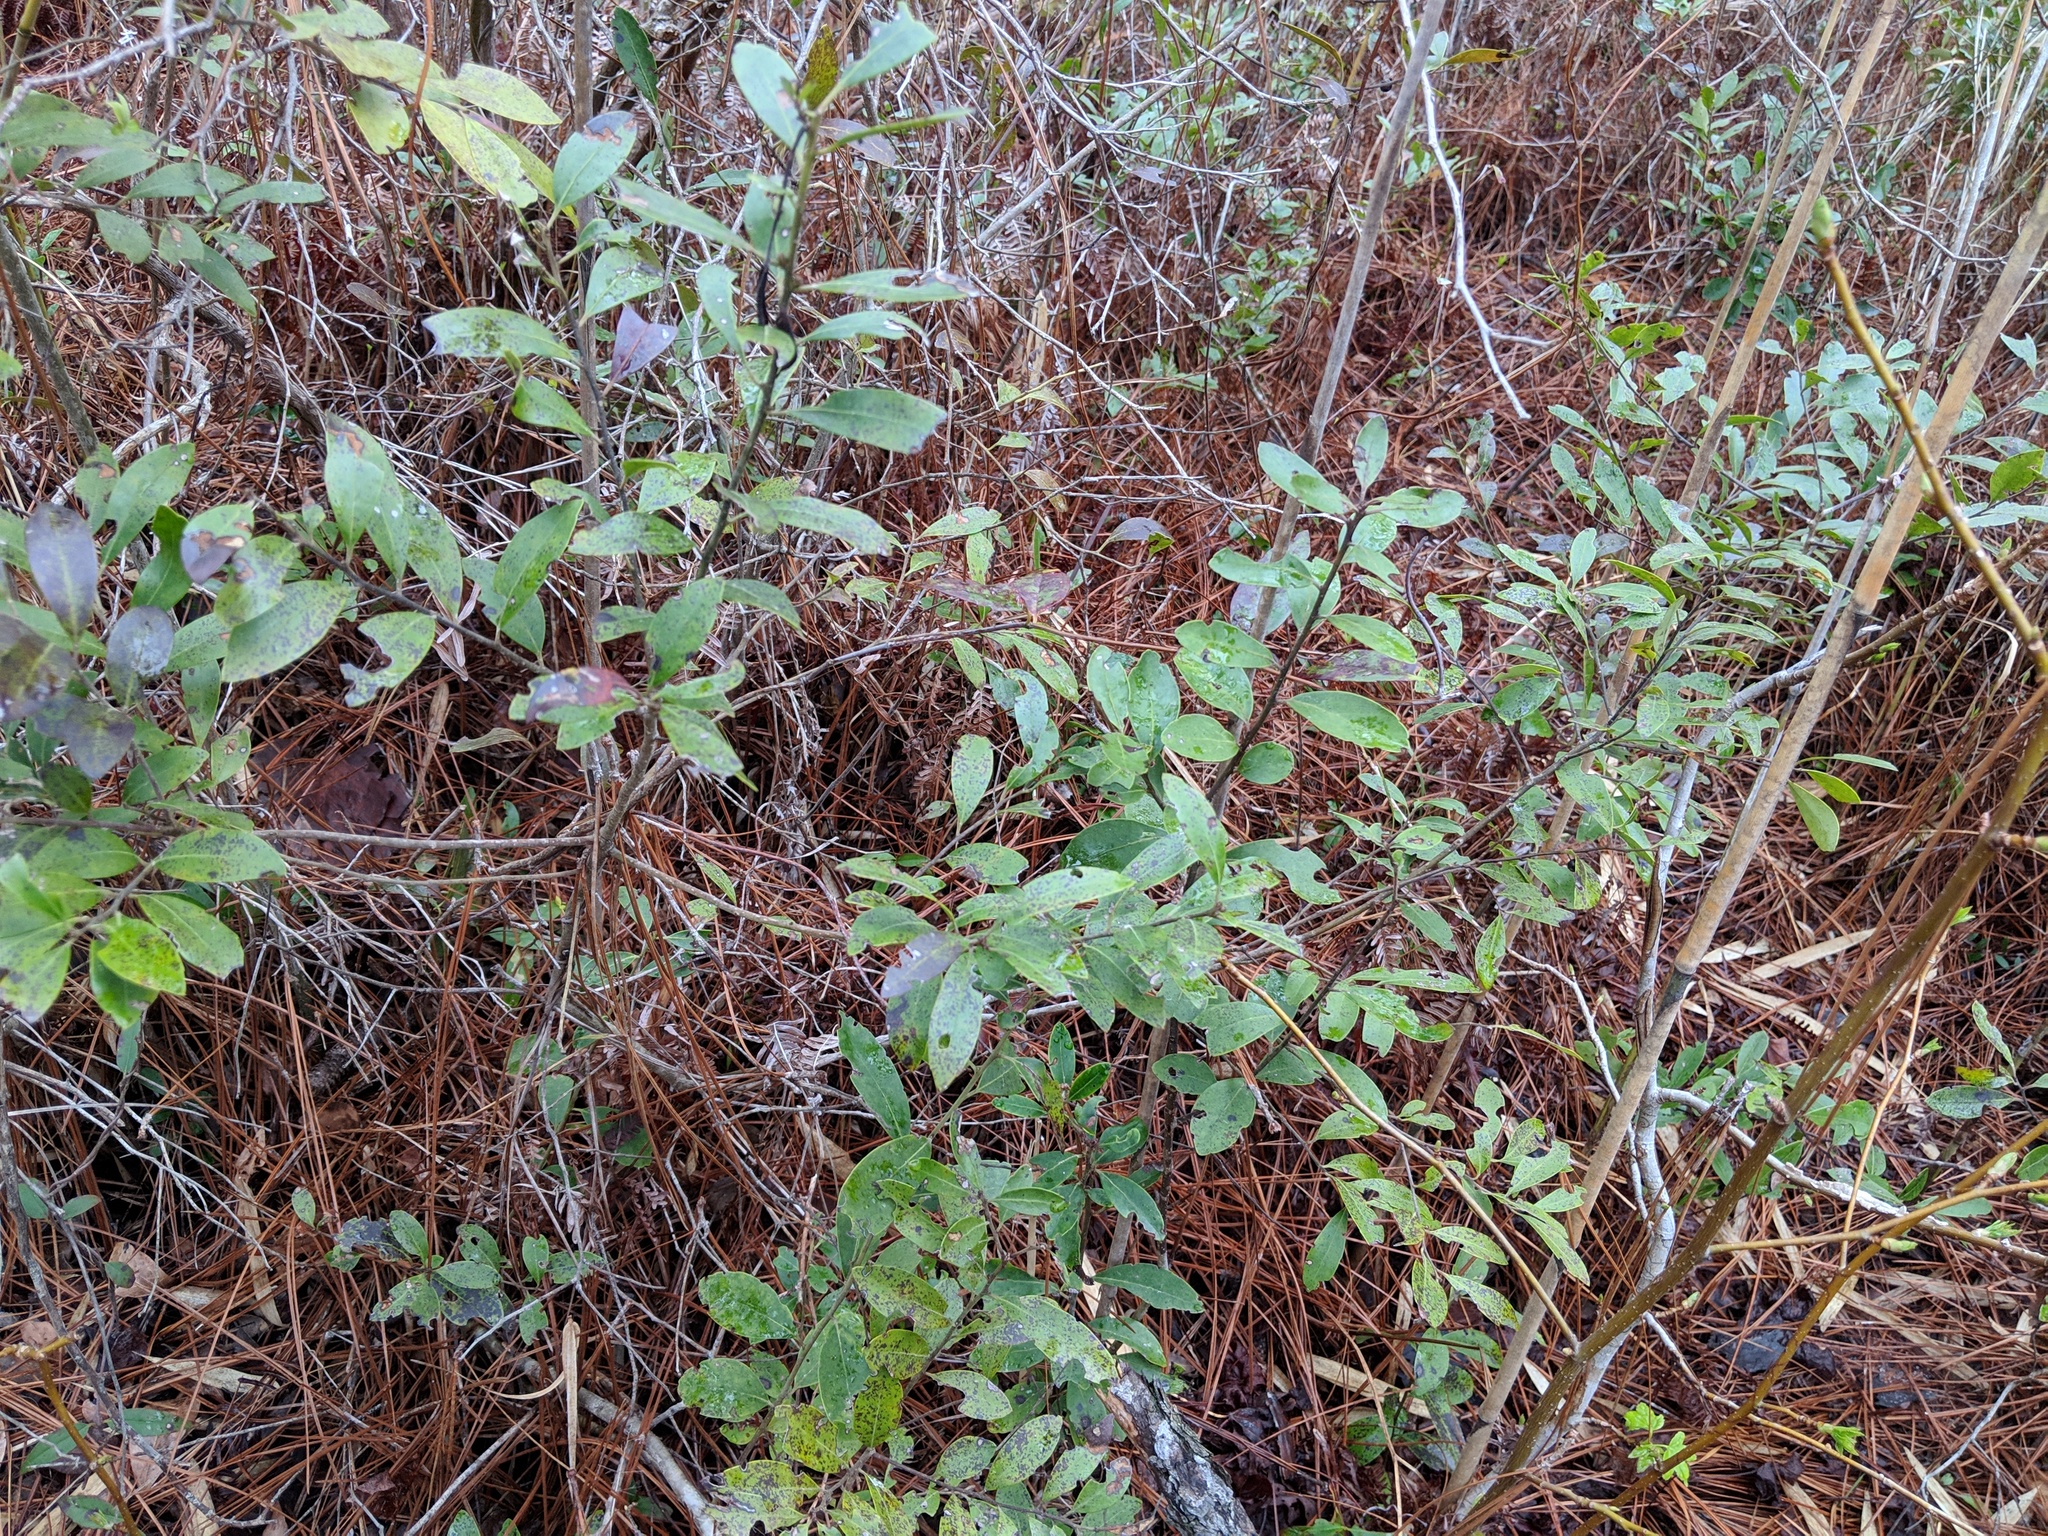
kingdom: Plantae
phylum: Tracheophyta
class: Magnoliopsida
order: Aquifoliales
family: Aquifoliaceae
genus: Ilex
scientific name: Ilex glabra
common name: Bitter gallberry
